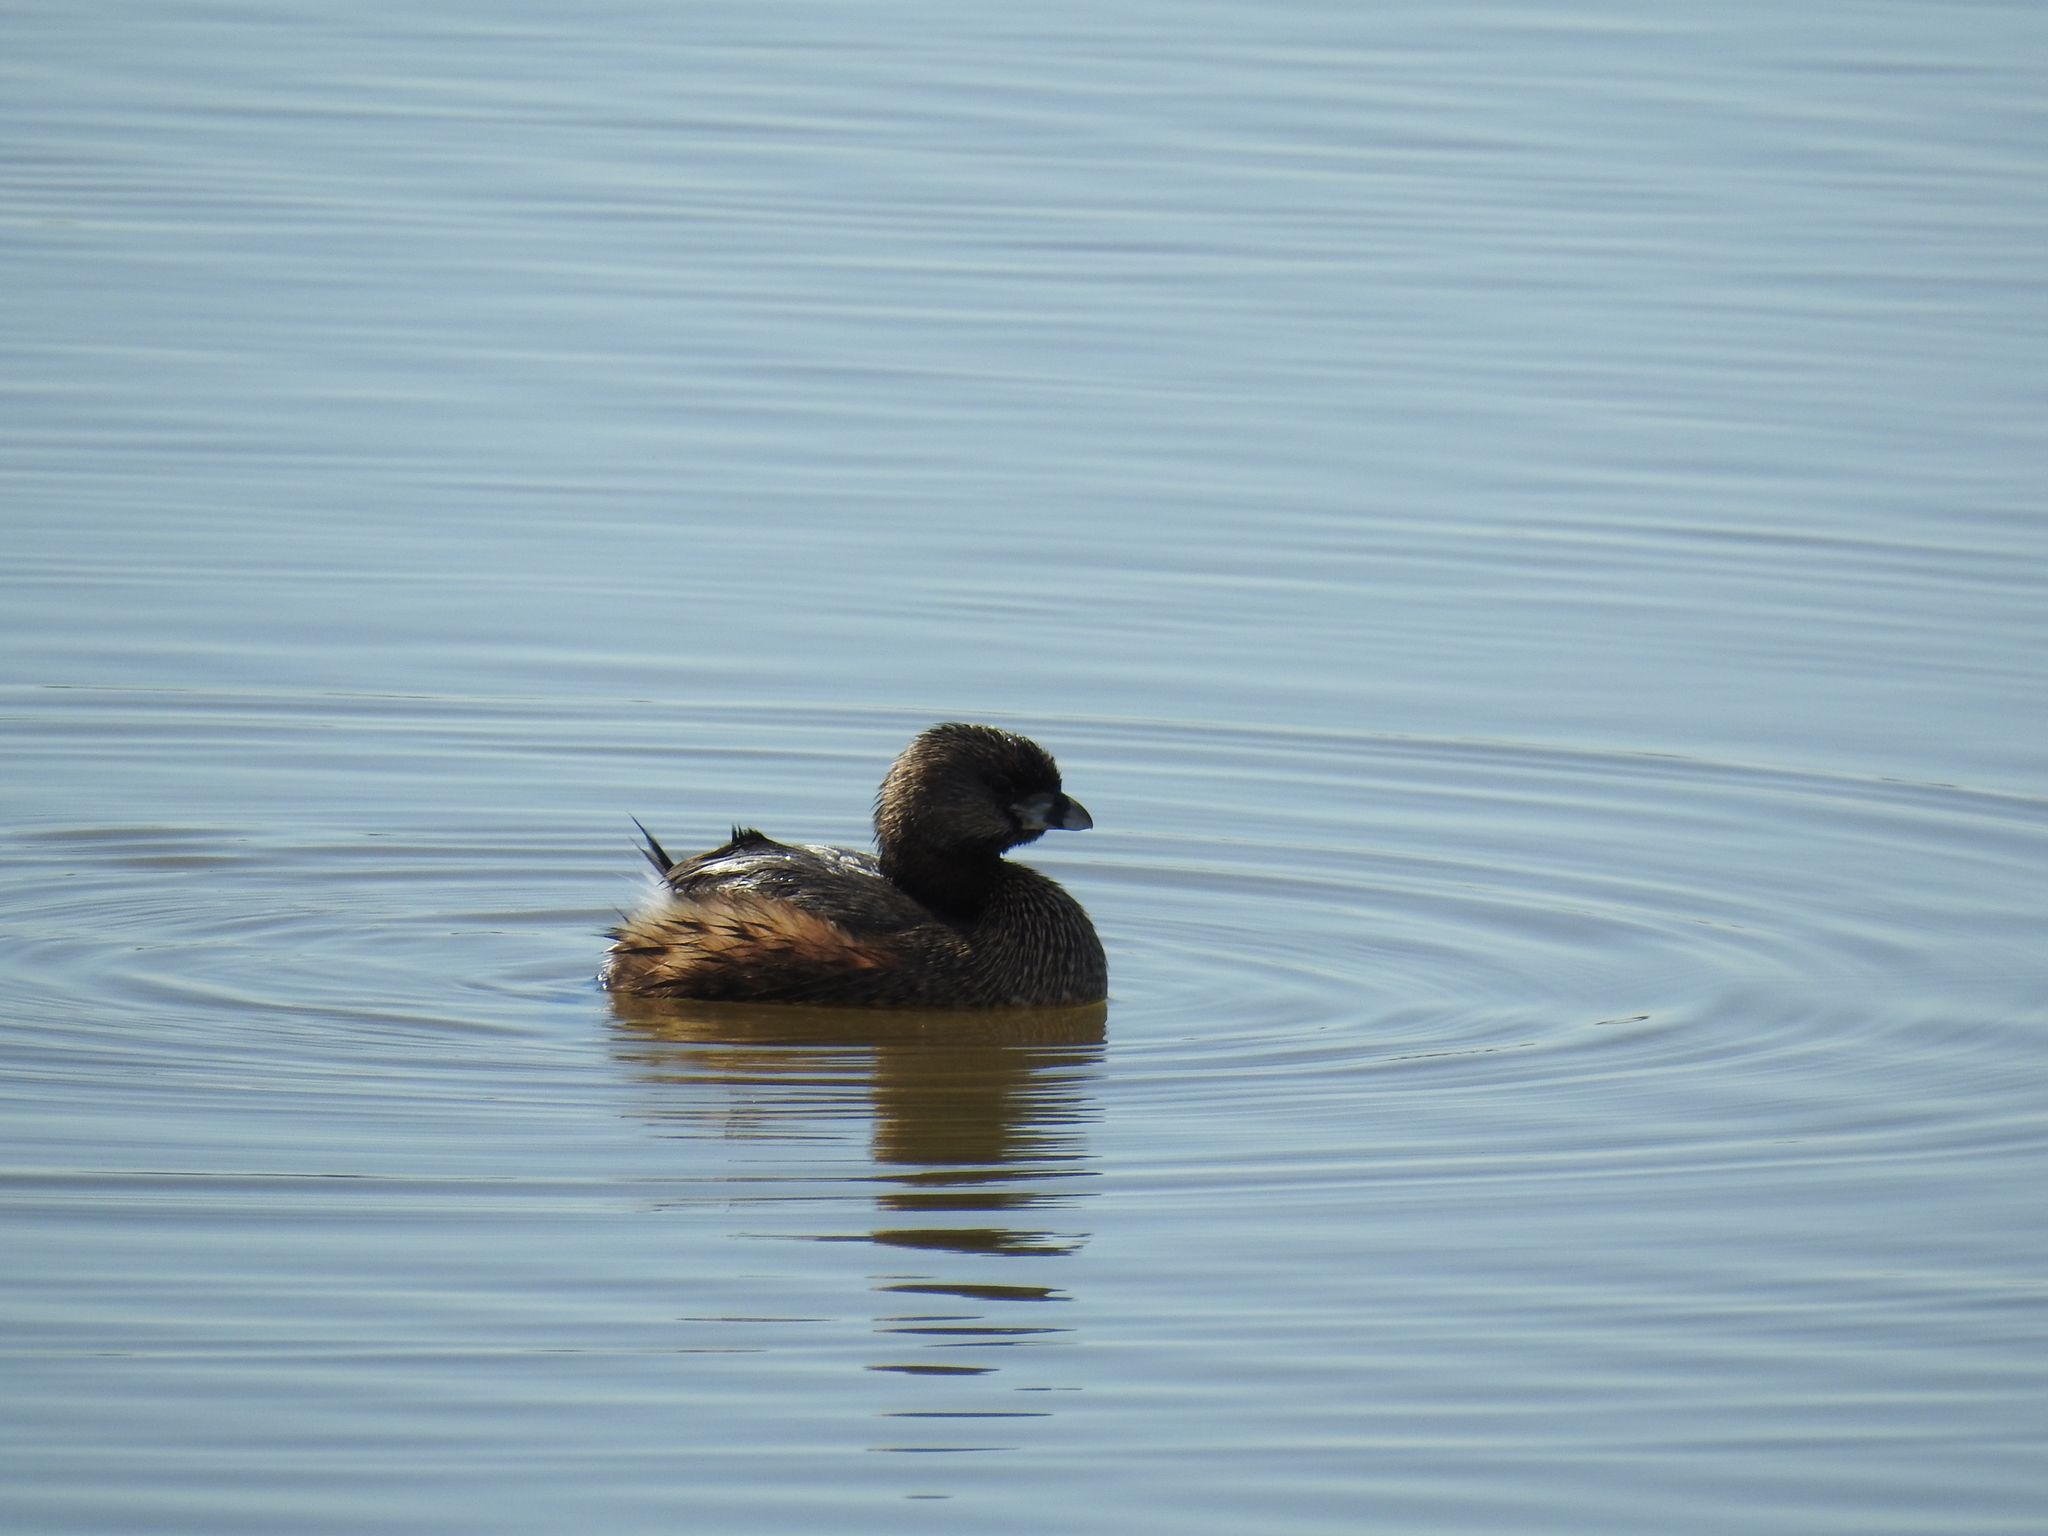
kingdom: Animalia
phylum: Chordata
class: Aves
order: Podicipediformes
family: Podicipedidae
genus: Podilymbus
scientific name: Podilymbus podiceps
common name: Pied-billed grebe
